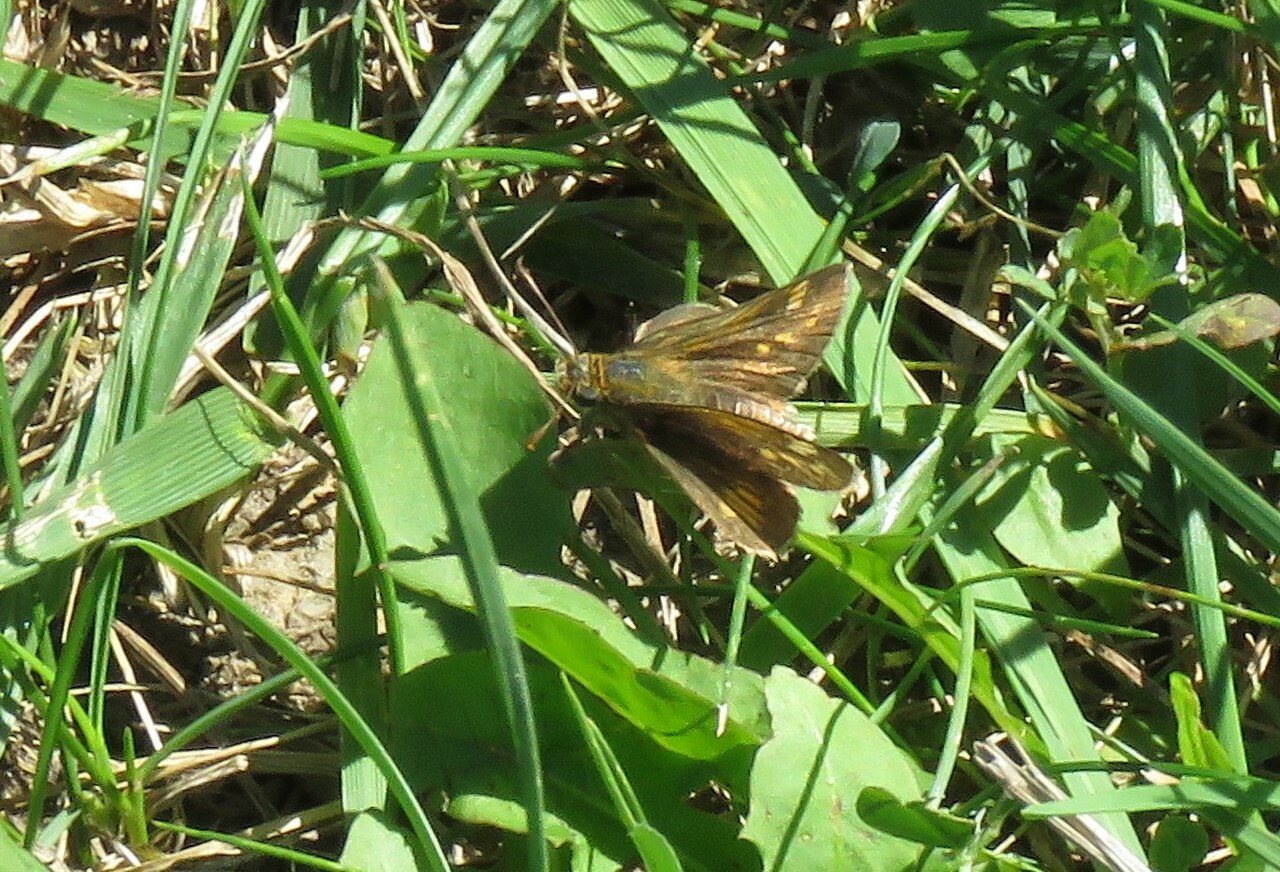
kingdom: Animalia
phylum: Arthropoda
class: Insecta
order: Lepidoptera
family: Hesperiidae
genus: Polites
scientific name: Polites coras
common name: Peck's skipper
